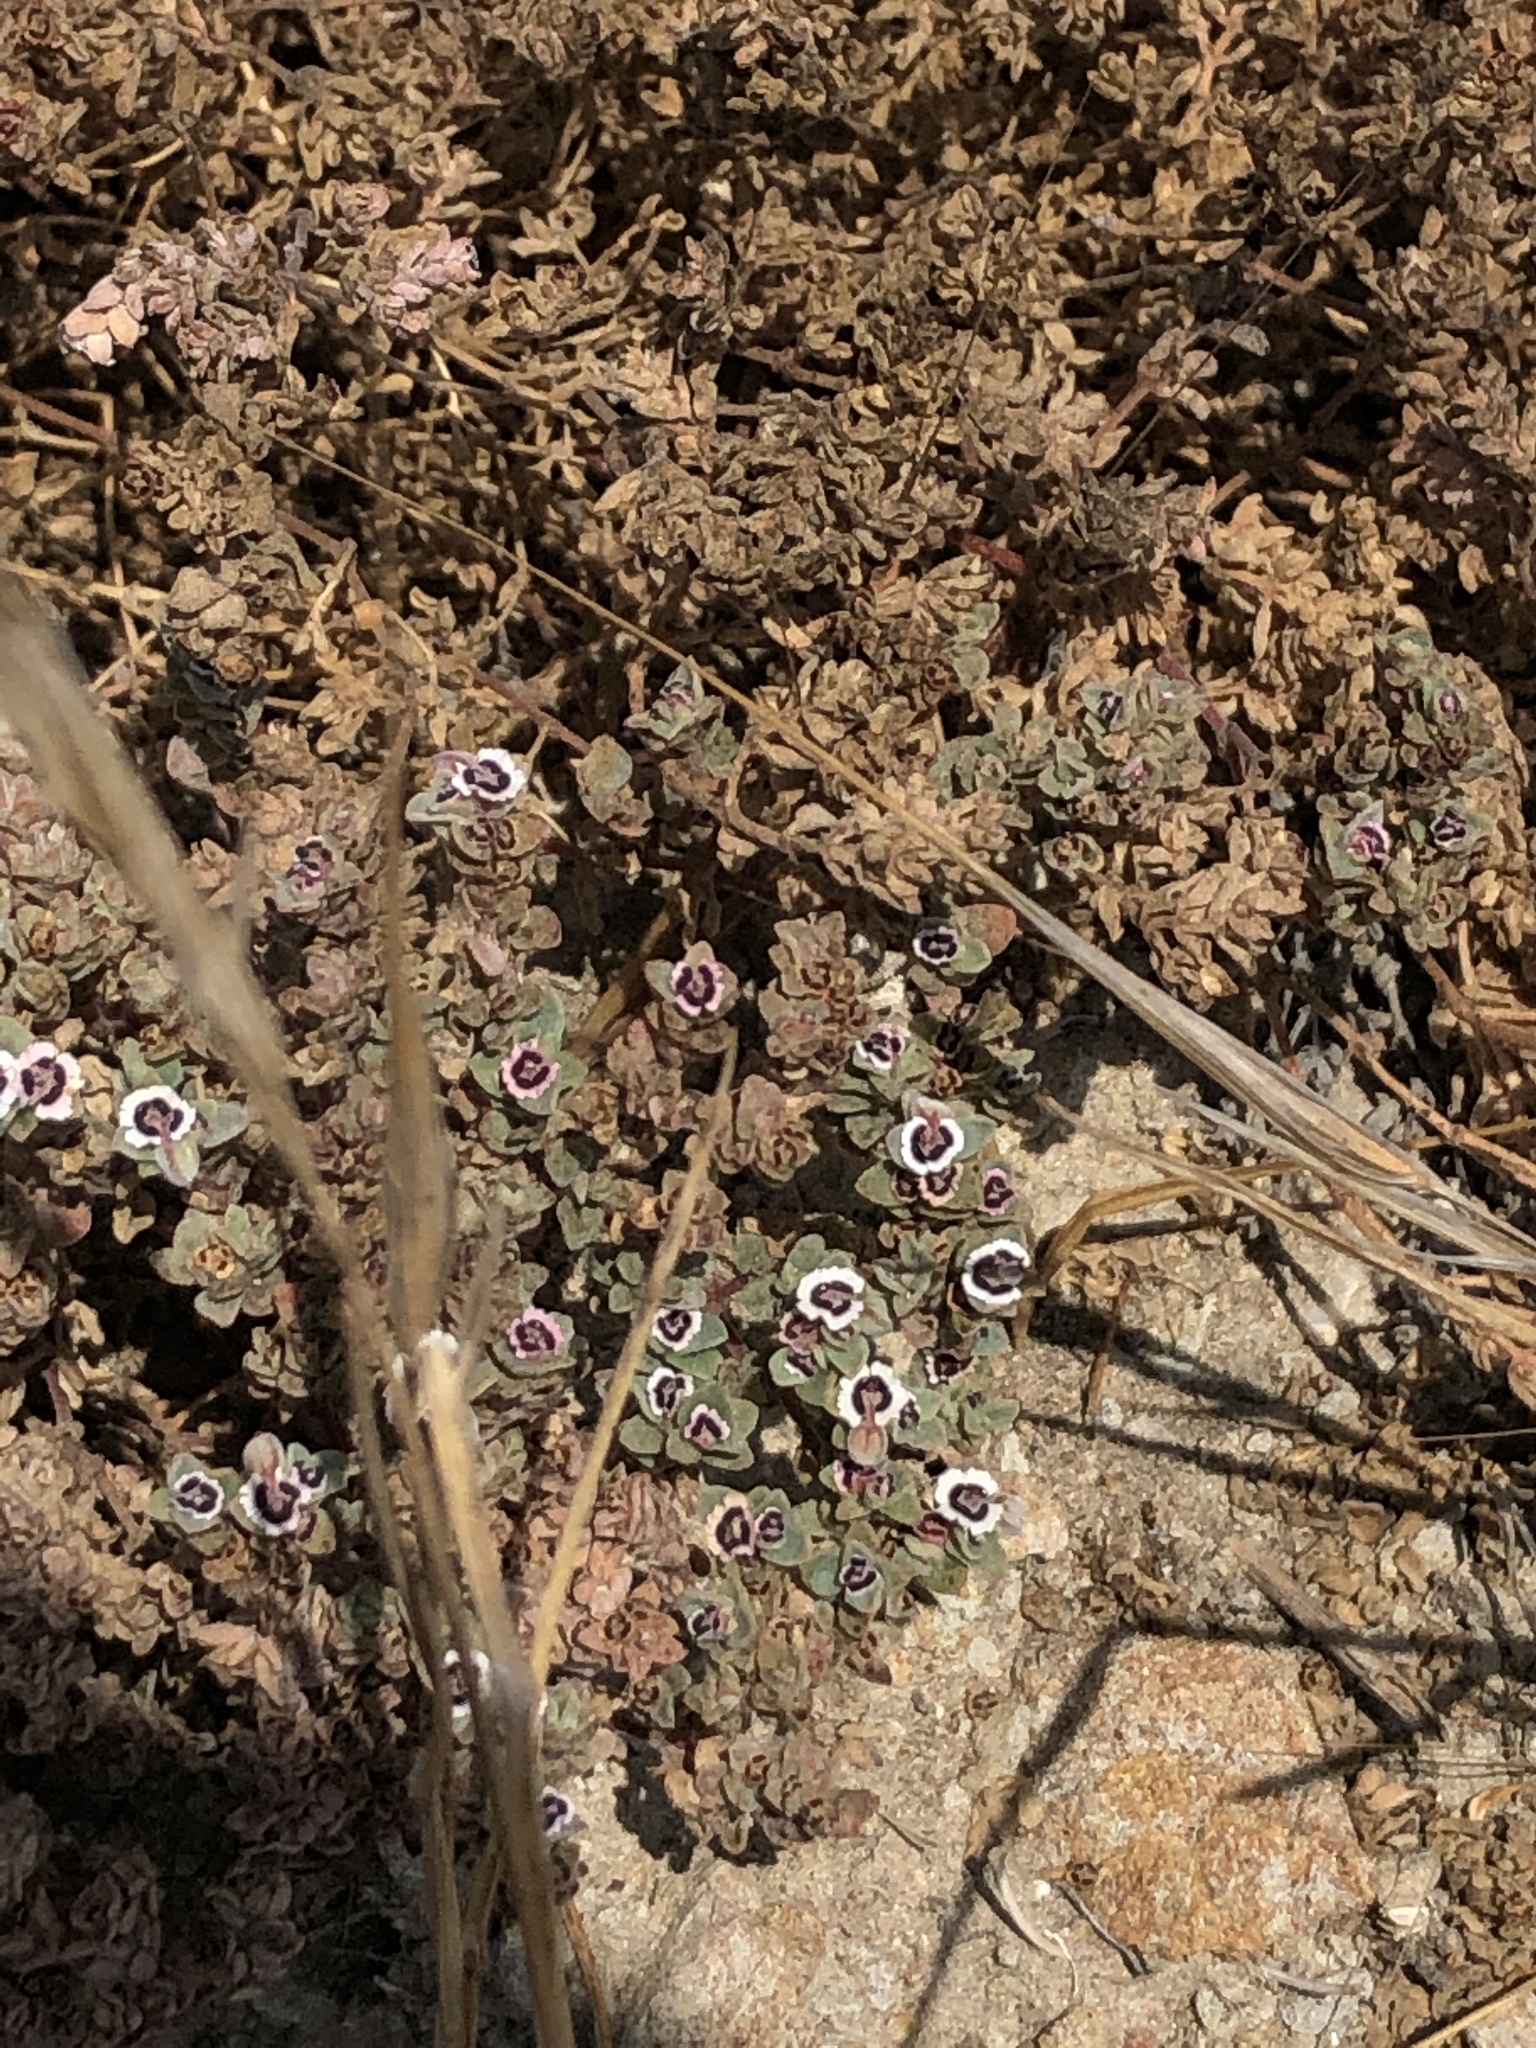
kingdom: Plantae
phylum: Tracheophyta
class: Magnoliopsida
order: Malpighiales
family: Euphorbiaceae
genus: Euphorbia
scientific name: Euphorbia melanadenia
